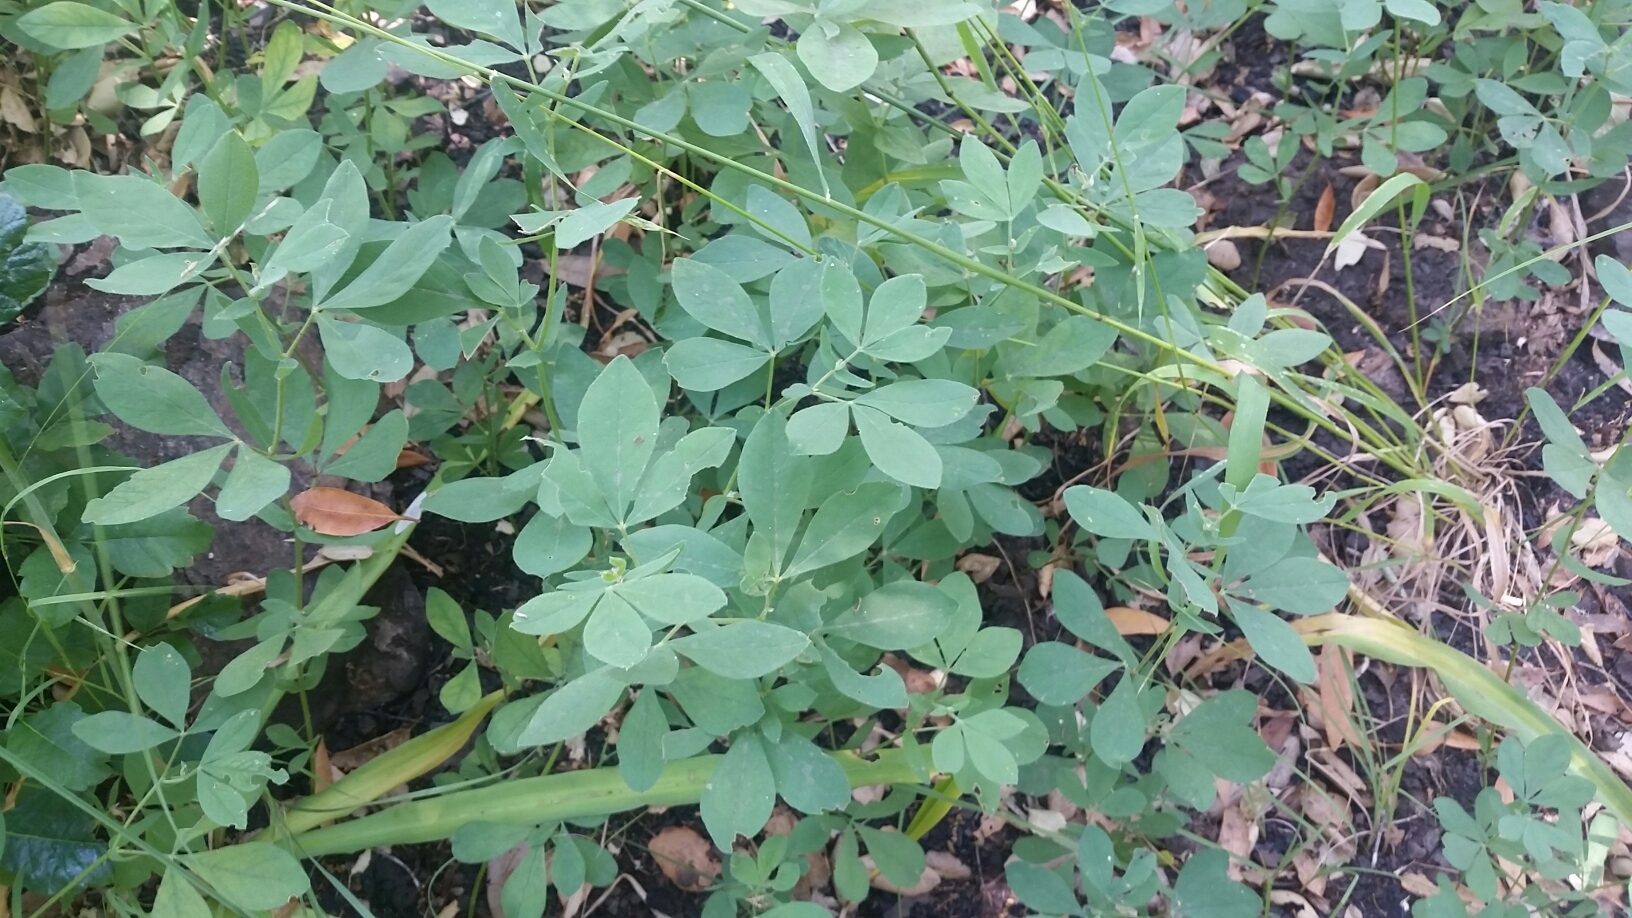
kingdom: Plantae
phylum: Tracheophyta
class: Magnoliopsida
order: Fabales
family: Fabaceae
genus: Thermopsis
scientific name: Thermopsis californica
